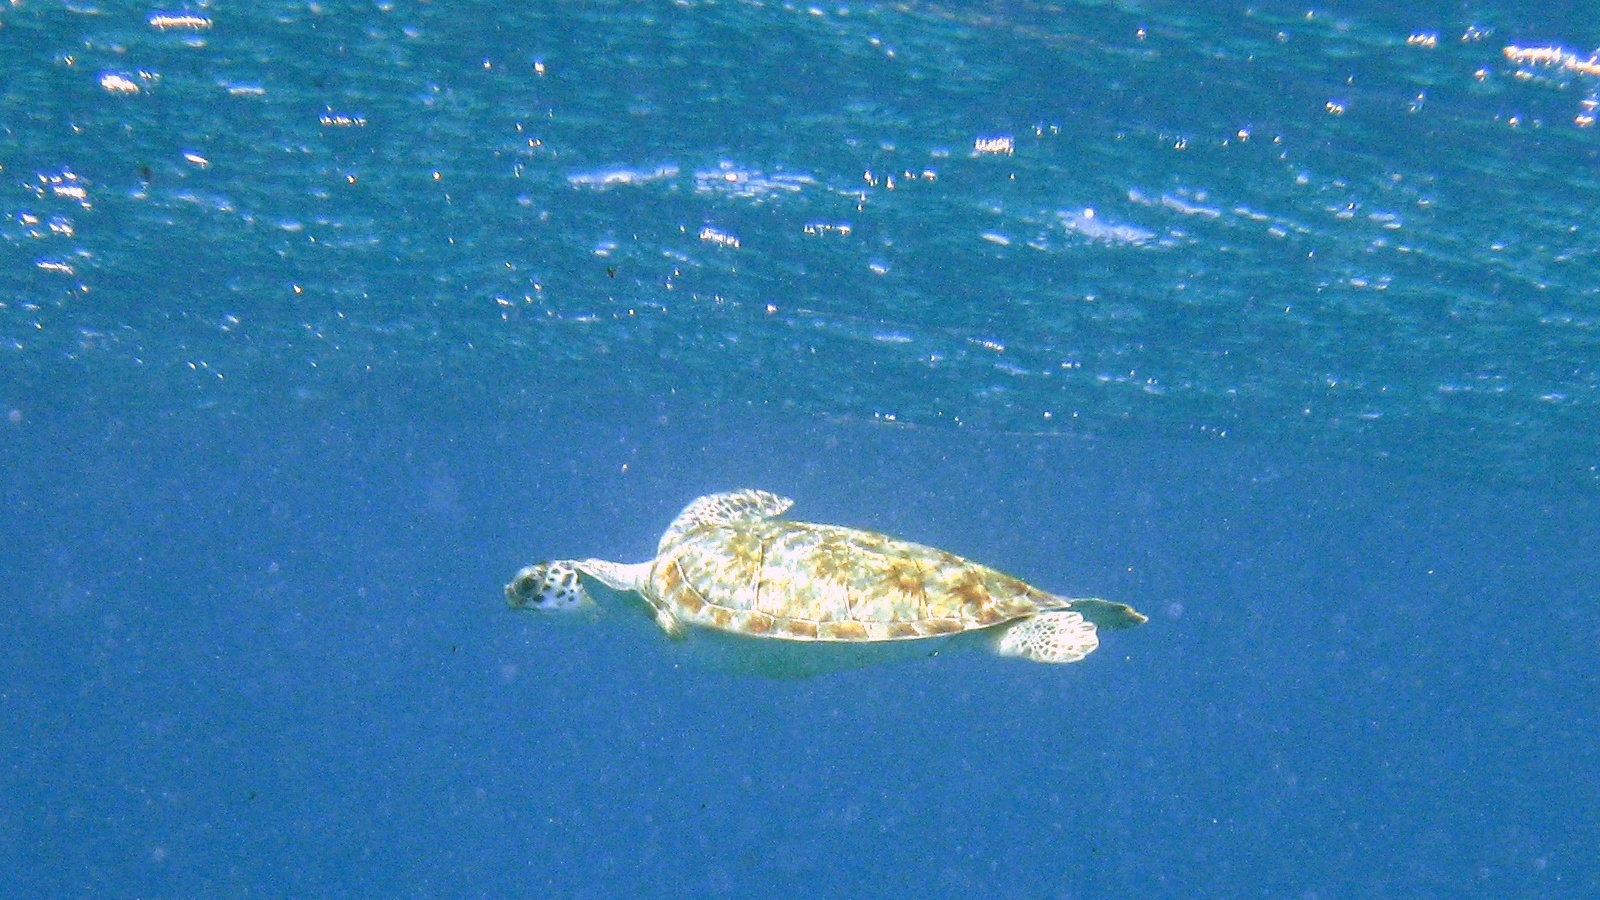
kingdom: Animalia
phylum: Chordata
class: Testudines
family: Cheloniidae
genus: Chelonia
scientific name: Chelonia mydas
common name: Green turtle
